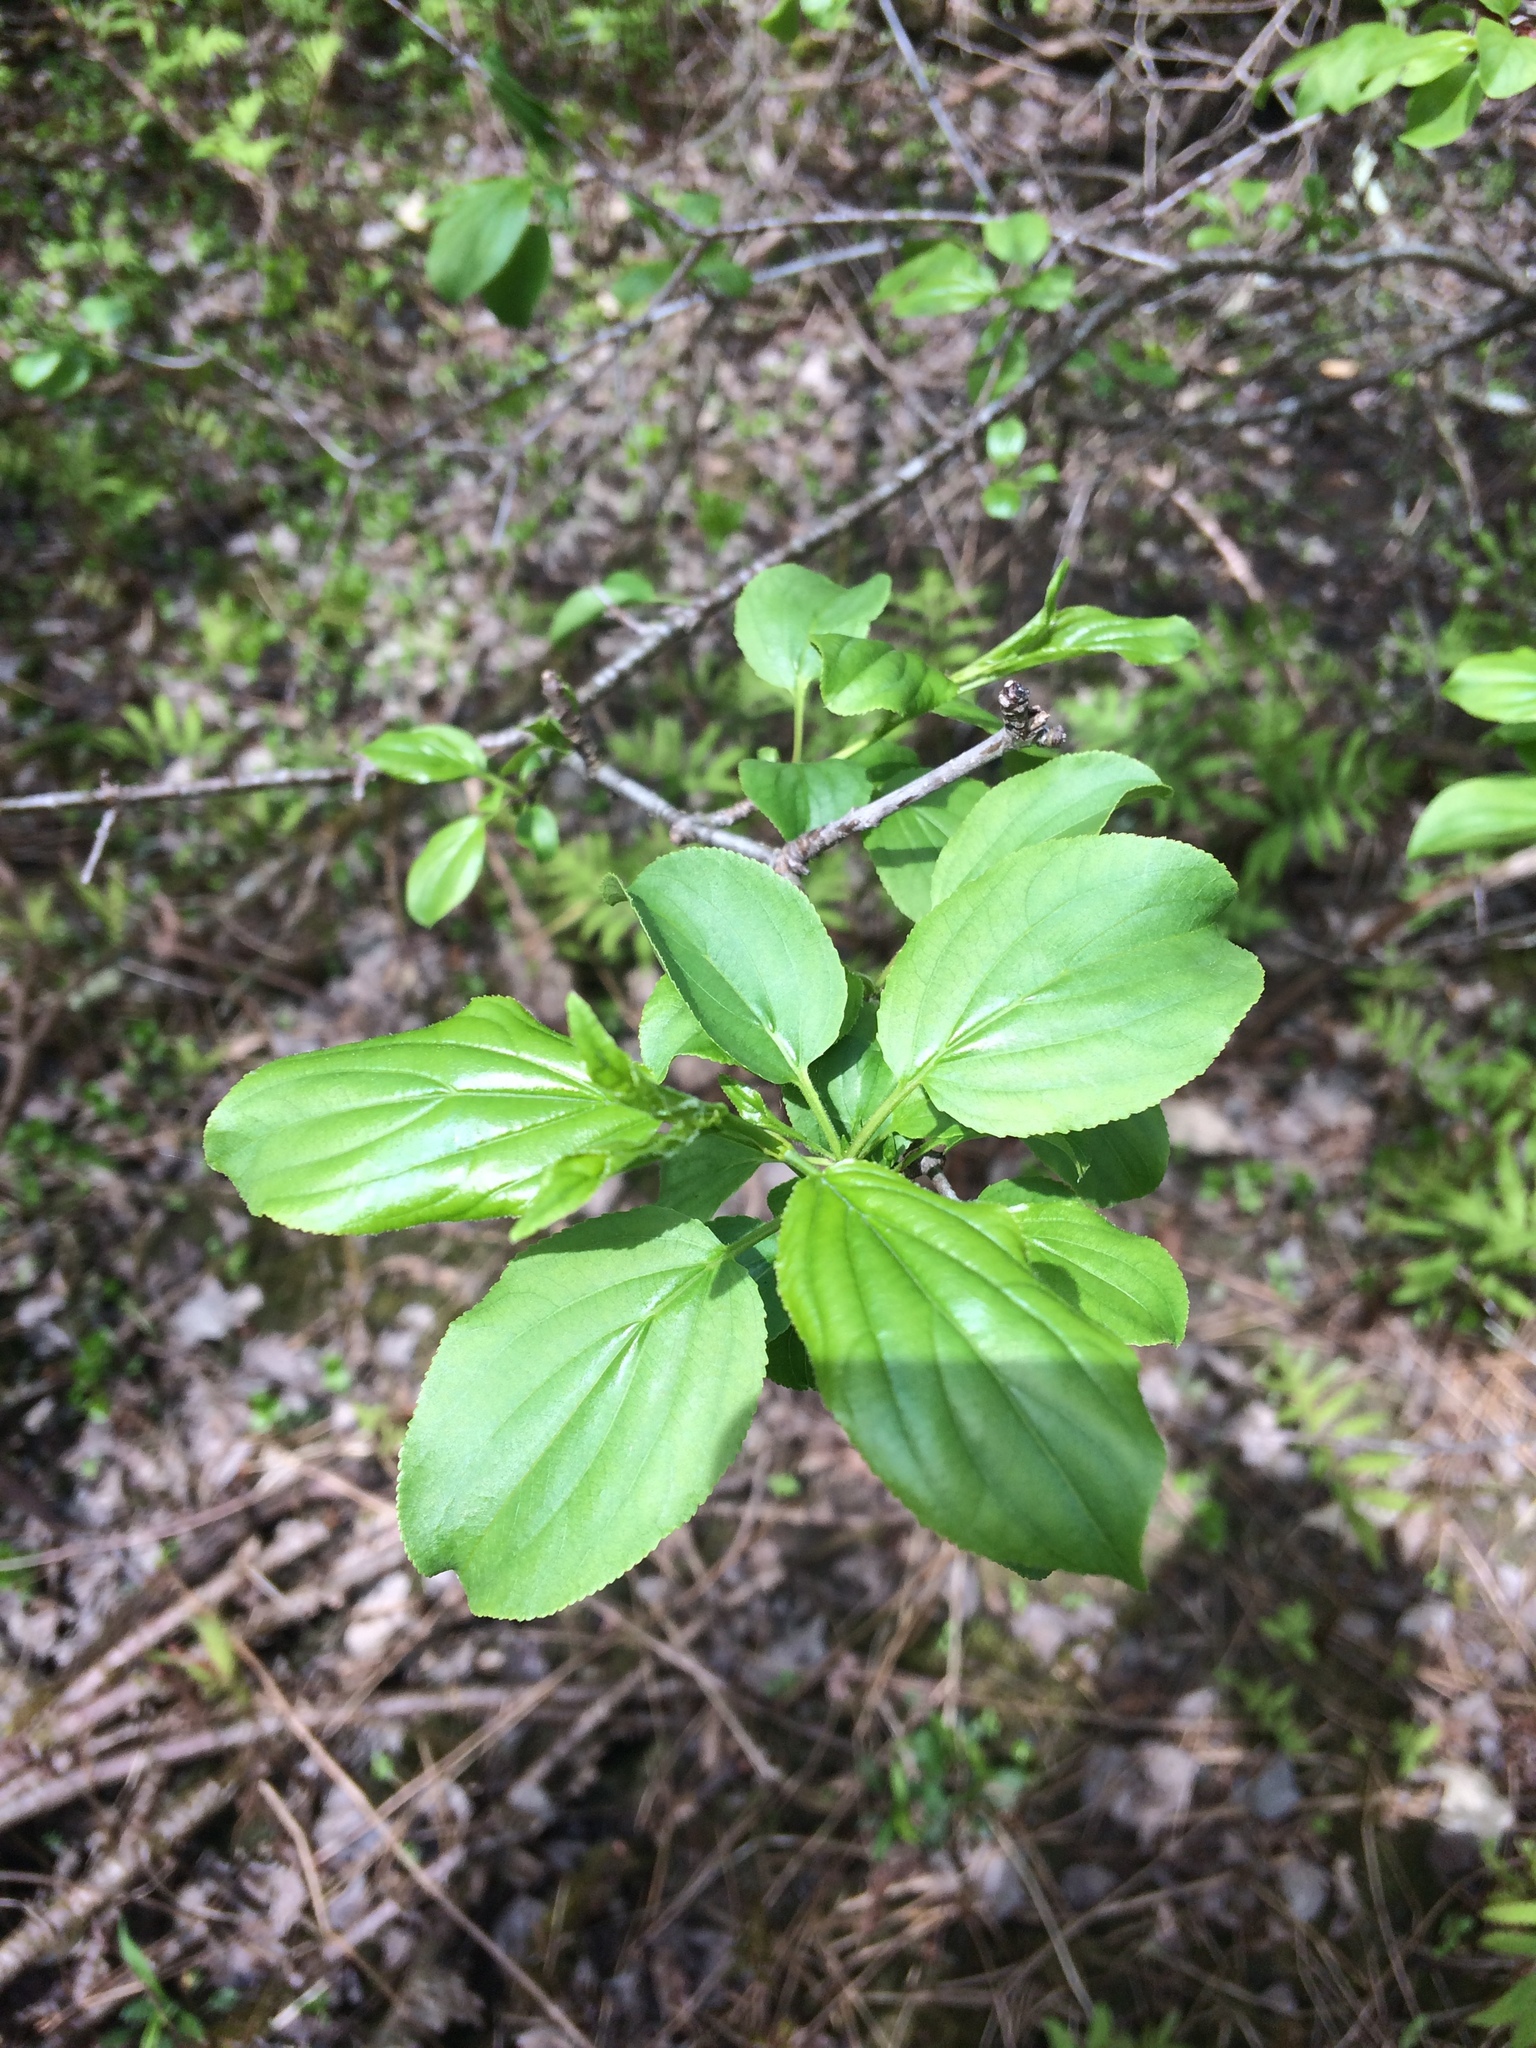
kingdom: Plantae
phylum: Tracheophyta
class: Magnoliopsida
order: Rosales
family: Rhamnaceae
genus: Rhamnus
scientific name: Rhamnus cathartica
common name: Common buckthorn
